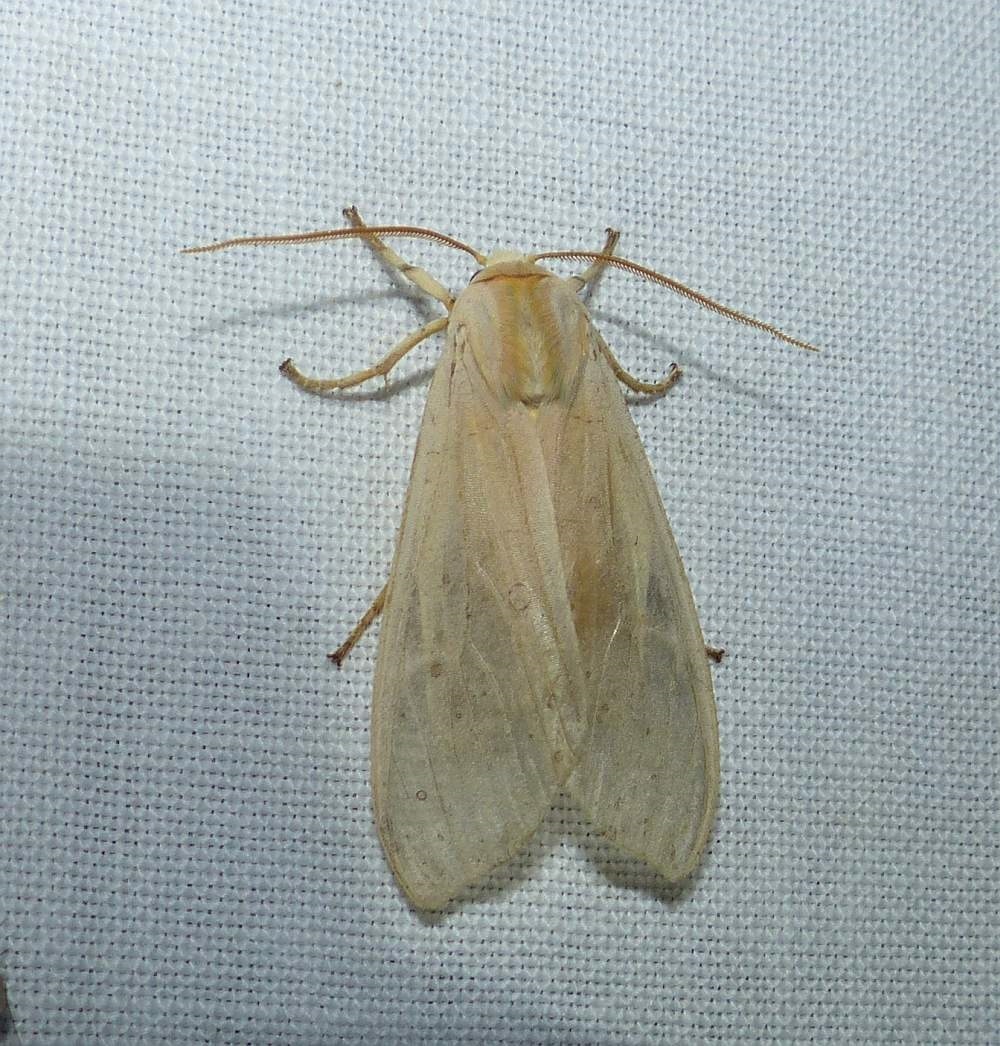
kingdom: Animalia
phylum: Arthropoda
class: Insecta
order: Lepidoptera
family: Erebidae
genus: Halysidota
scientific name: Halysidota tessellaris
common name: Banded tussock moth
